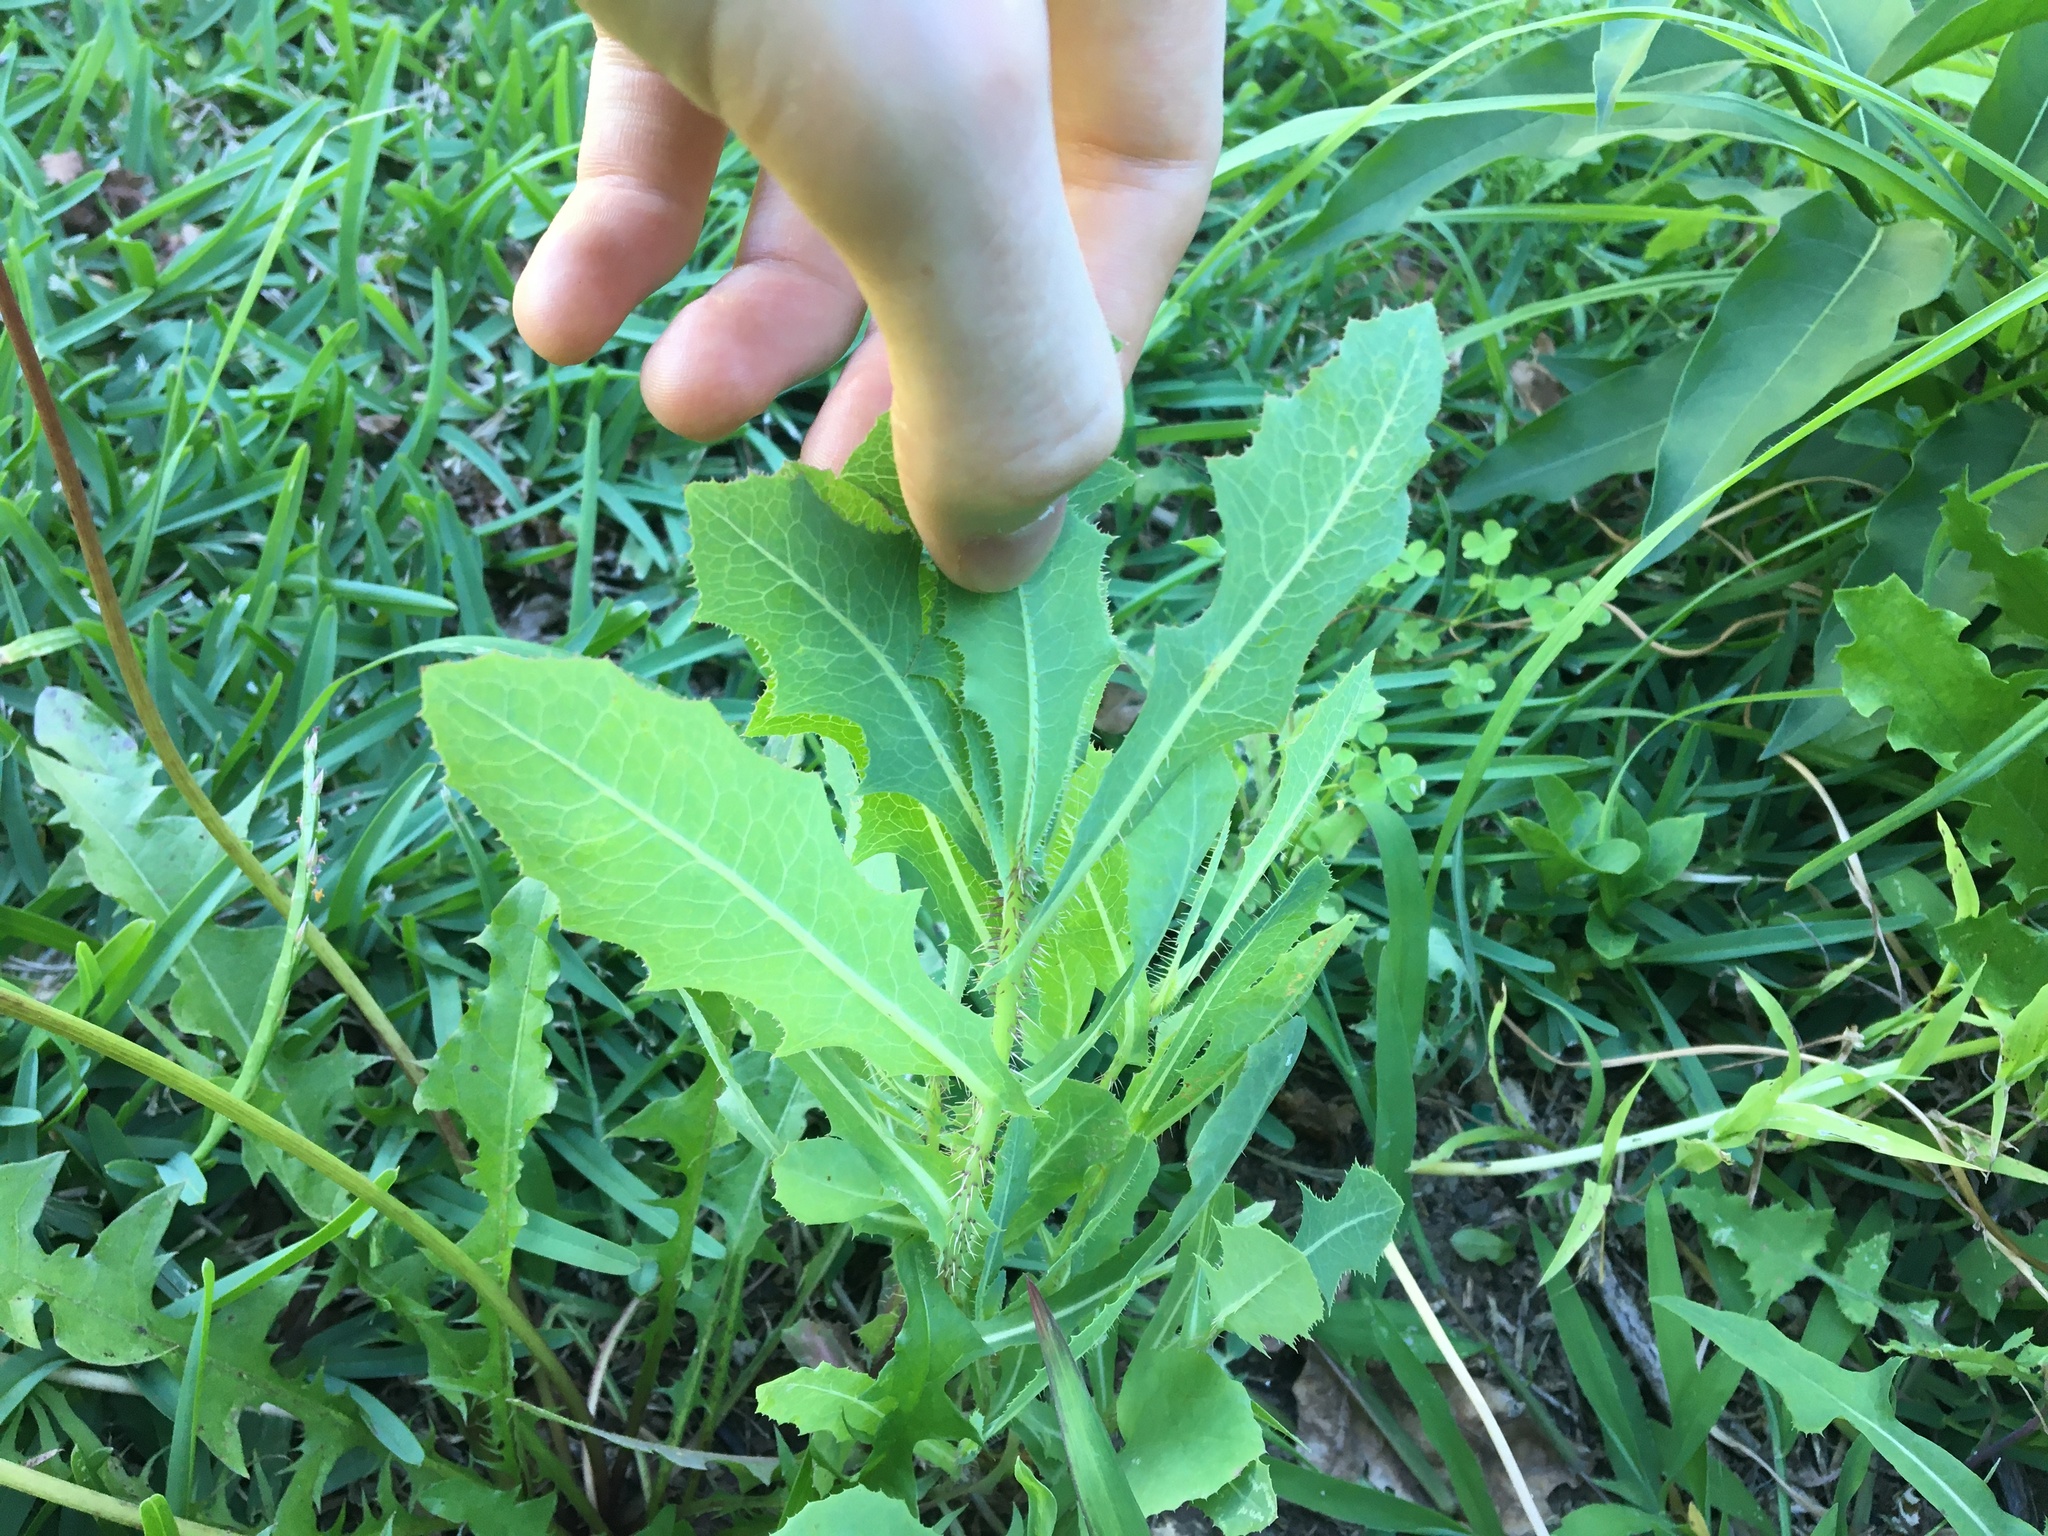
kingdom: Plantae
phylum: Tracheophyta
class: Magnoliopsida
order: Asterales
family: Asteraceae
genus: Lactuca
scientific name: Lactuca serriola
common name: Prickly lettuce
